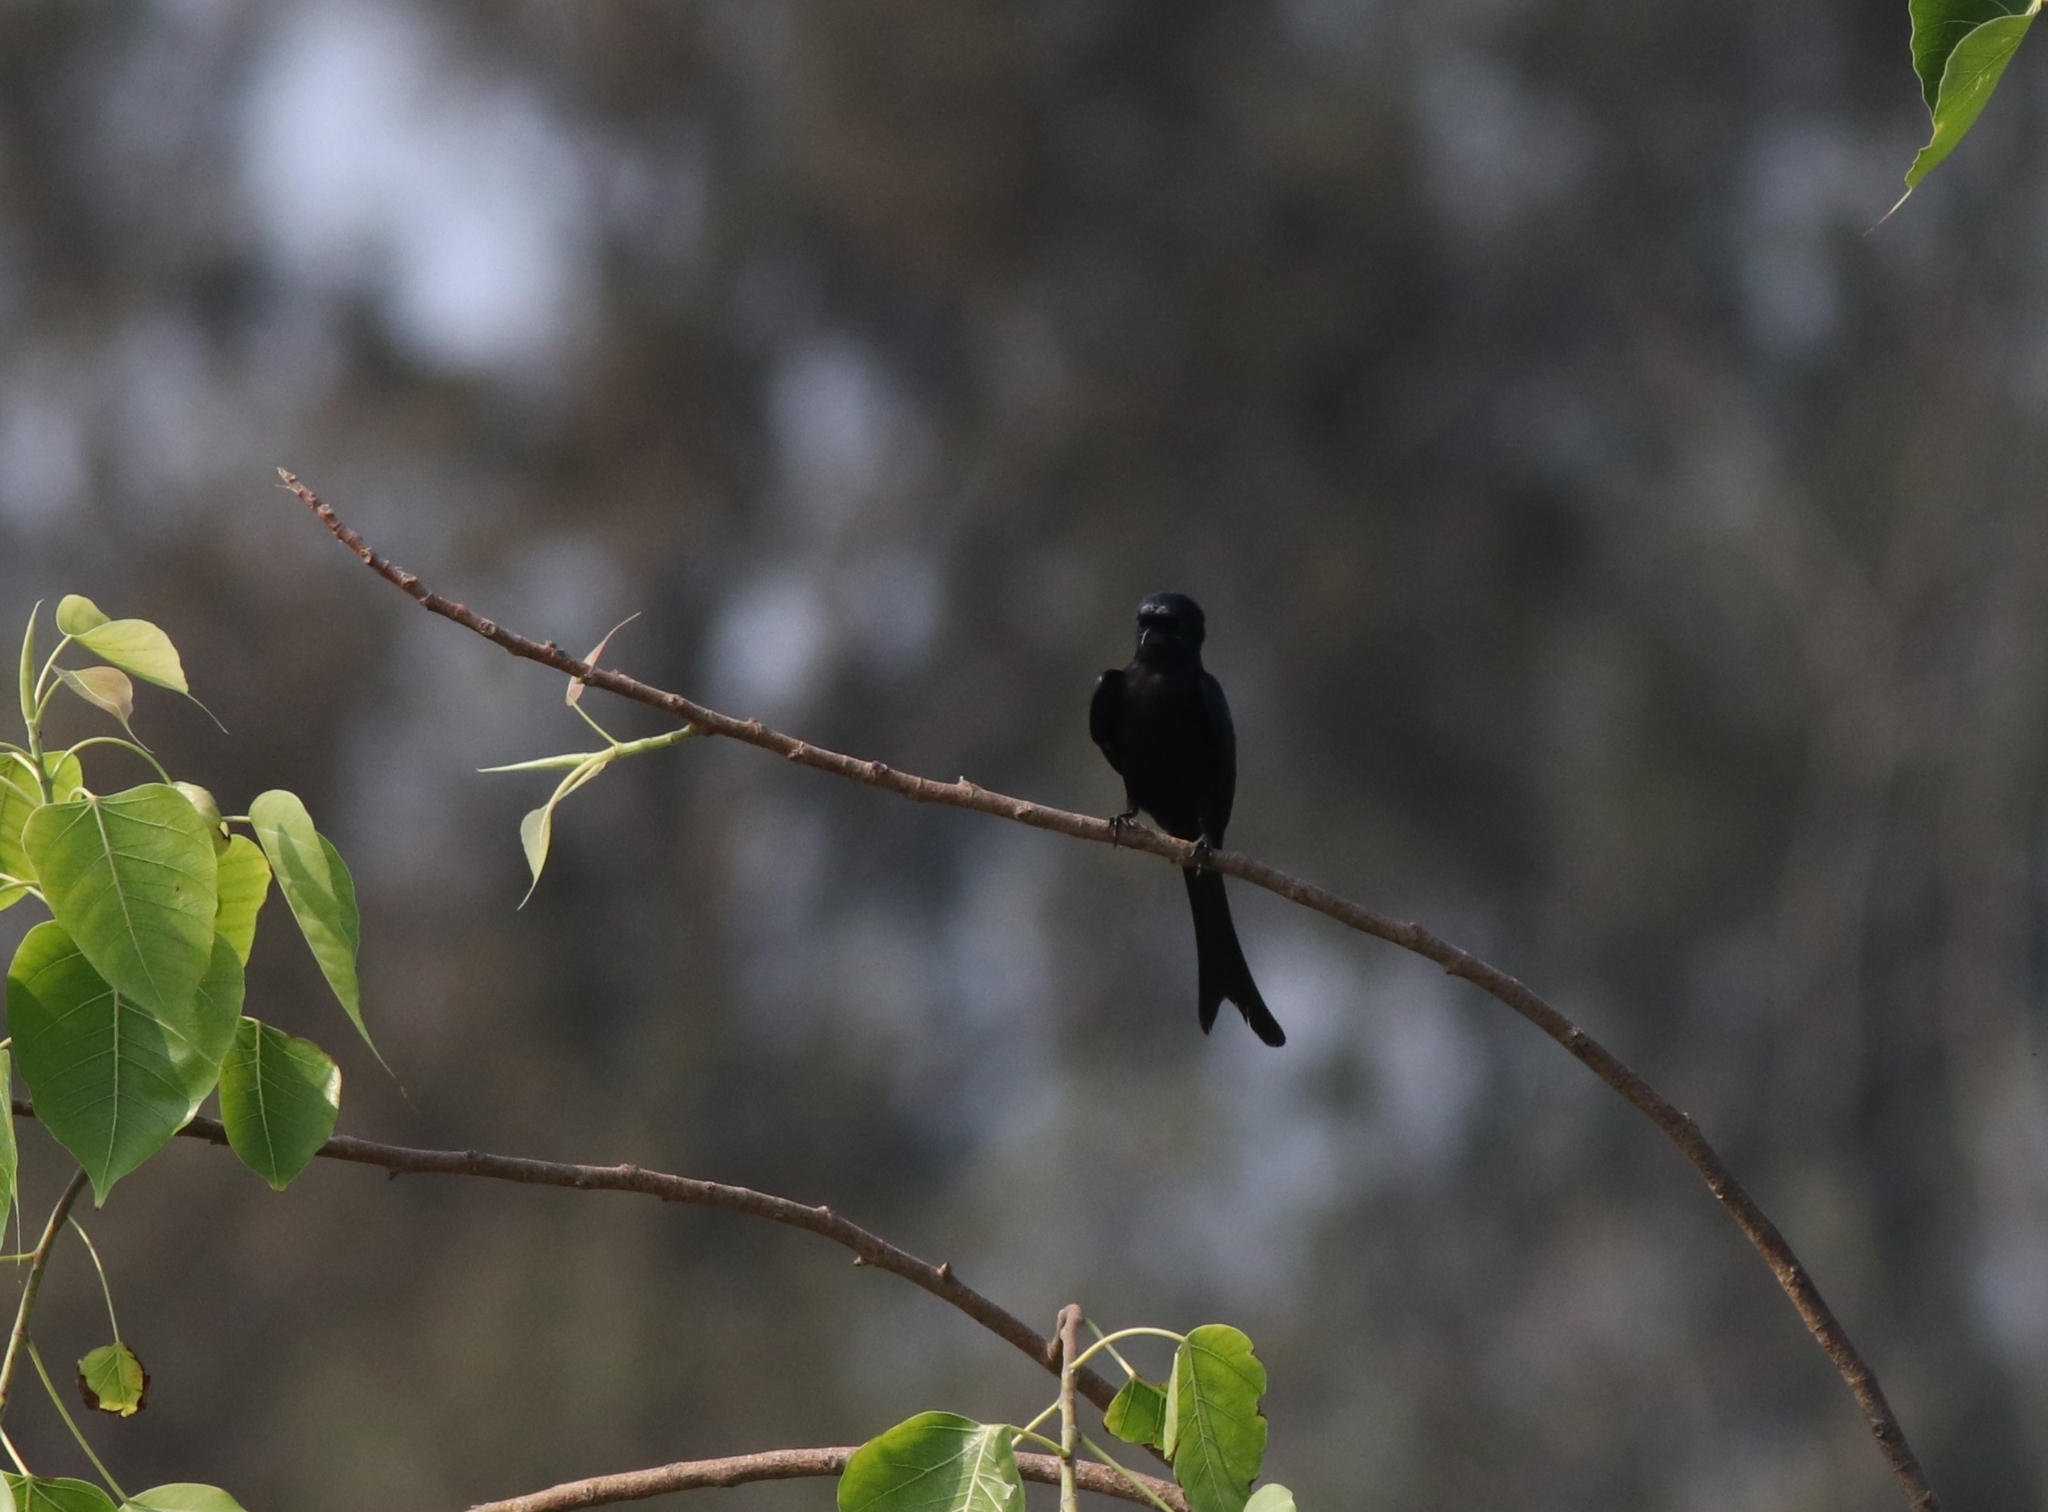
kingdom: Animalia
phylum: Chordata
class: Aves
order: Passeriformes
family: Dicruridae
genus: Dicrurus
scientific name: Dicrurus macrocercus
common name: Black drongo
